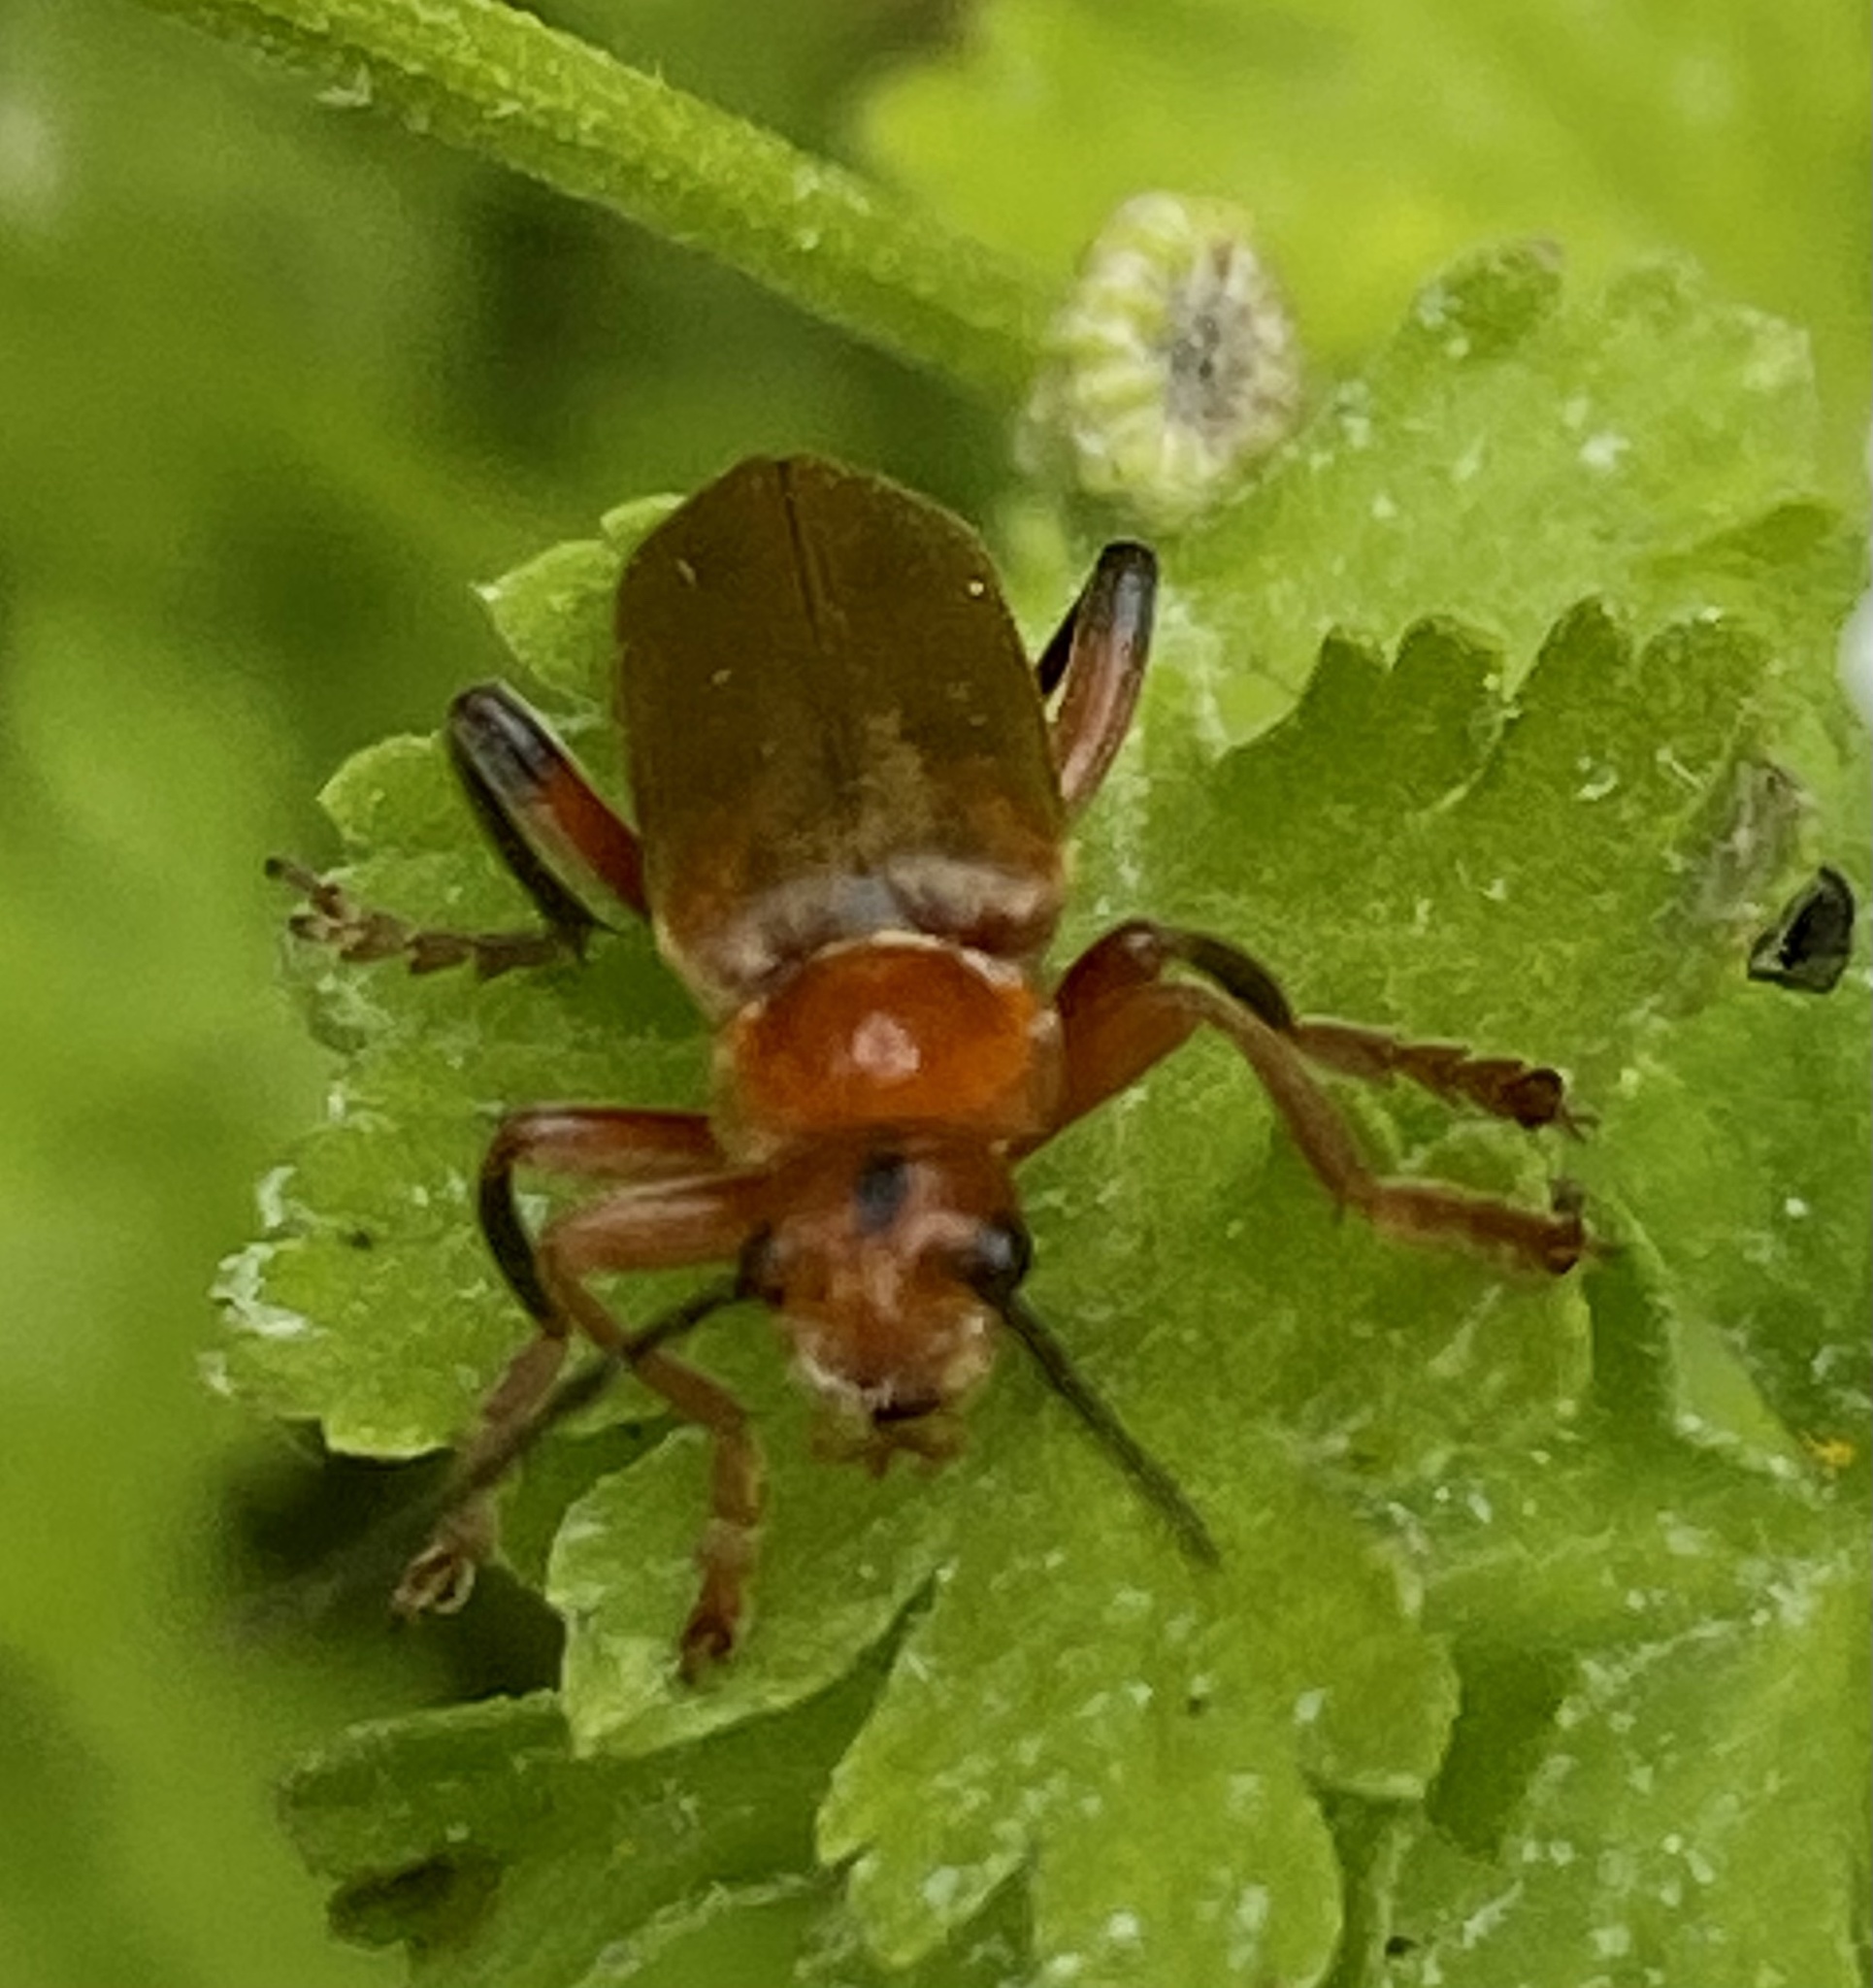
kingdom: Animalia
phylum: Arthropoda
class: Insecta
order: Coleoptera
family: Cantharidae
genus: Cantharis
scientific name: Cantharis livida
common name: Livid soldier beetle
